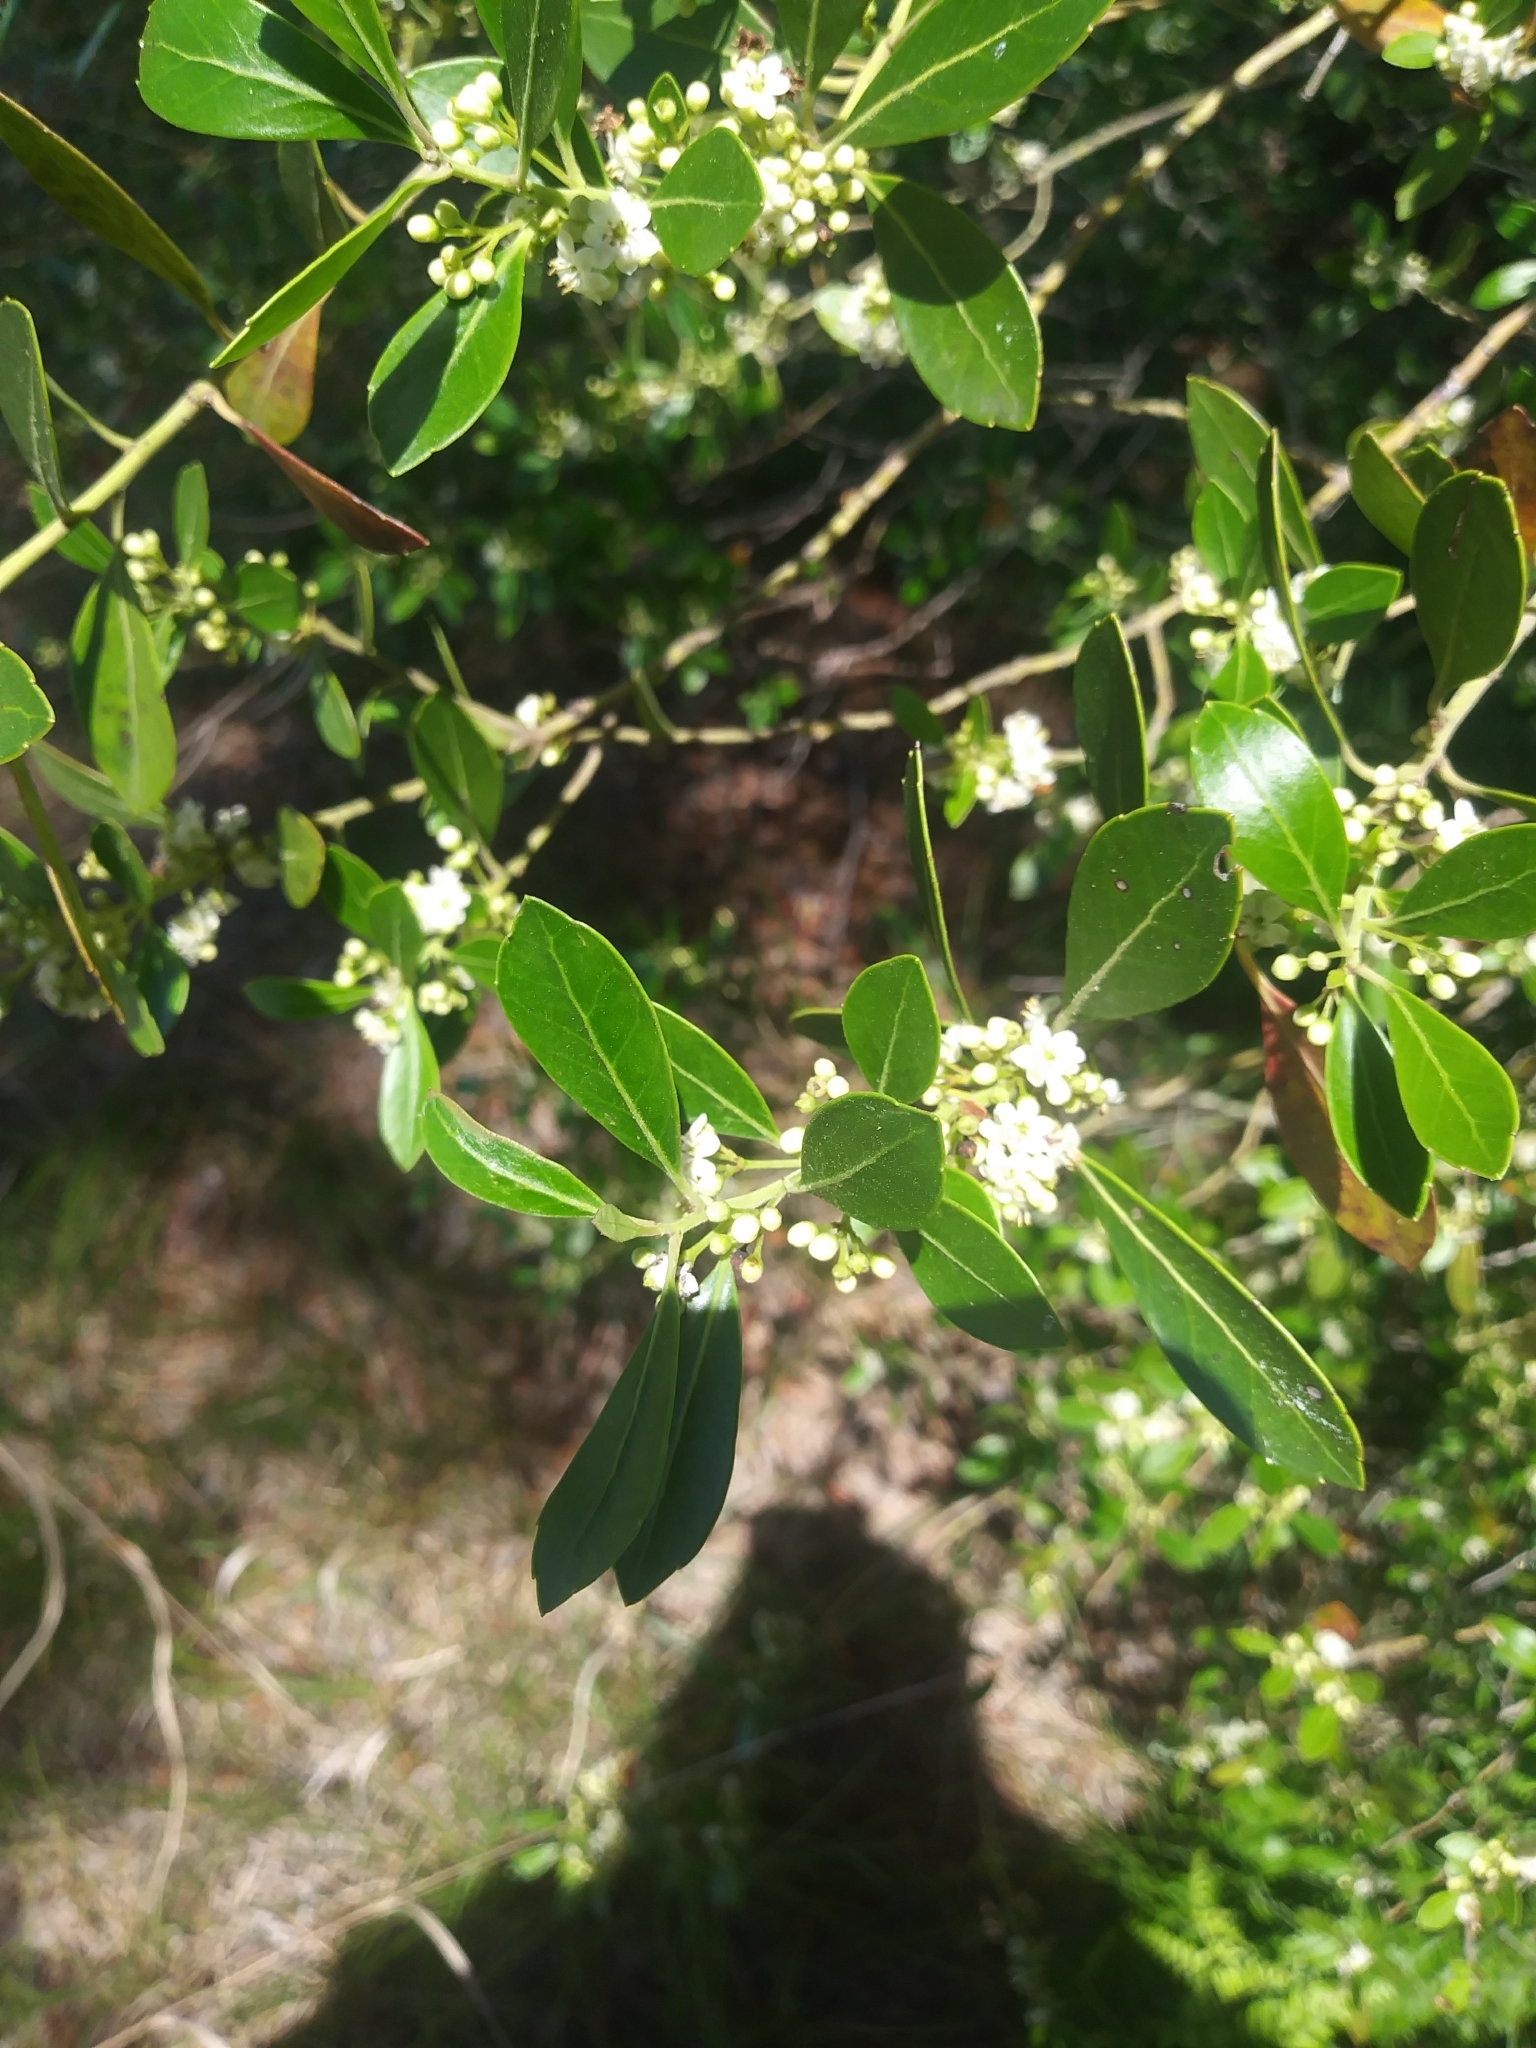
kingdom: Plantae
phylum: Tracheophyta
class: Magnoliopsida
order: Aquifoliales
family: Aquifoliaceae
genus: Ilex
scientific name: Ilex glabra
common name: Bitter gallberry
